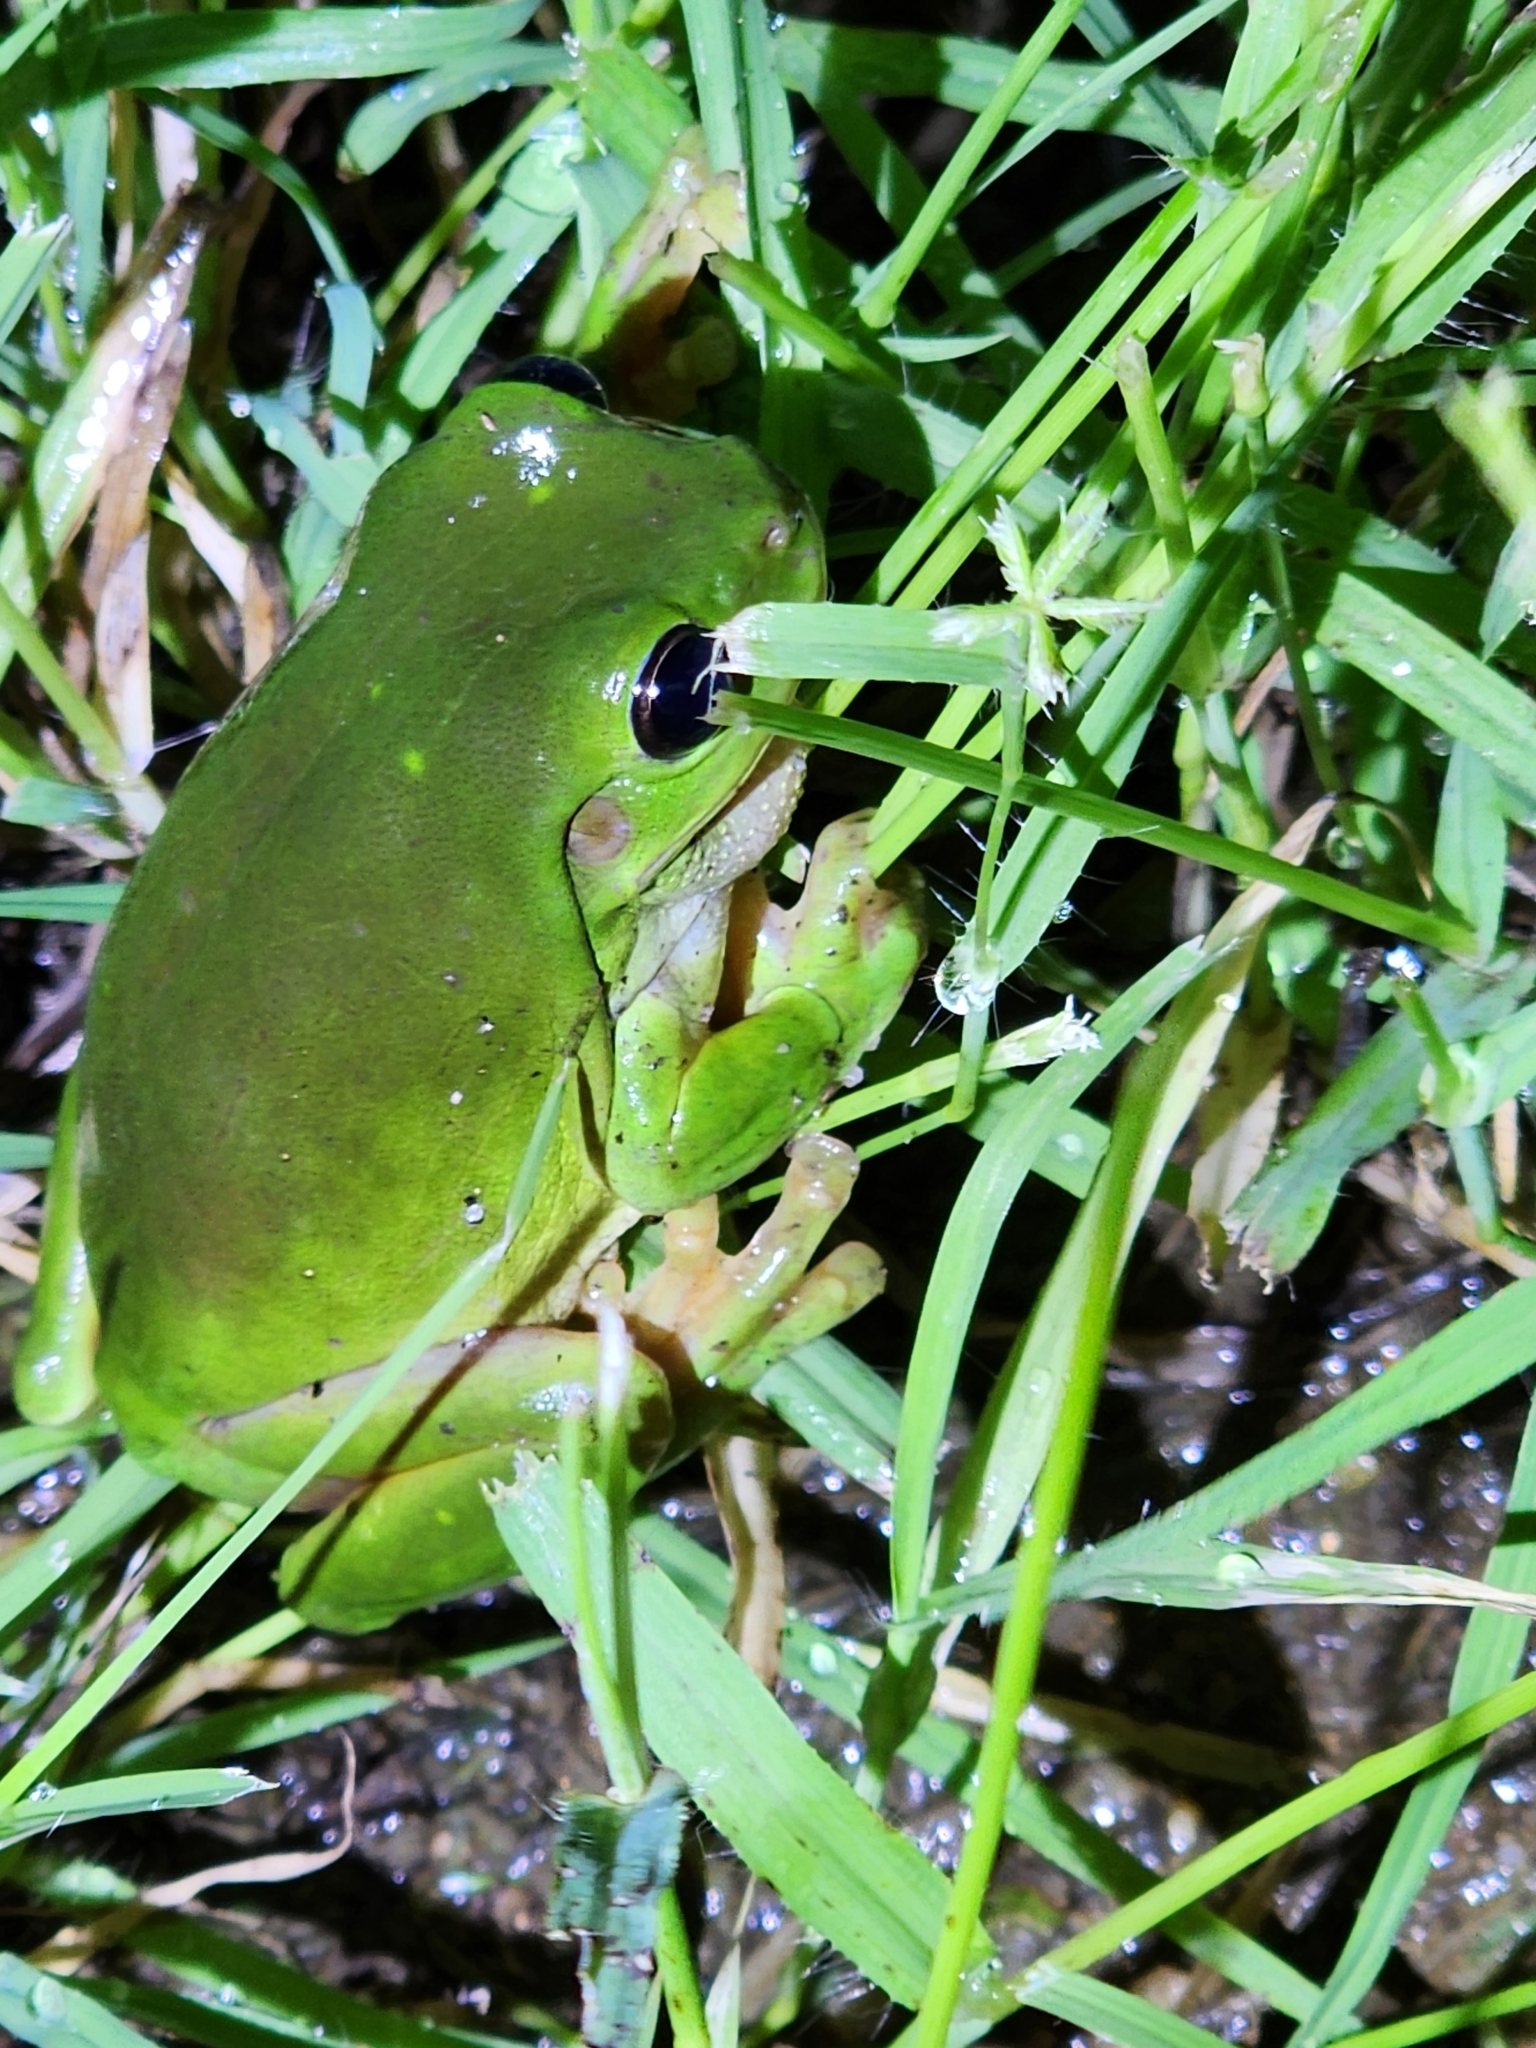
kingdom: Animalia
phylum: Chordata
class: Amphibia
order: Anura
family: Pelodryadidae
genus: Ranoidea
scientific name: Ranoidea caerulea
